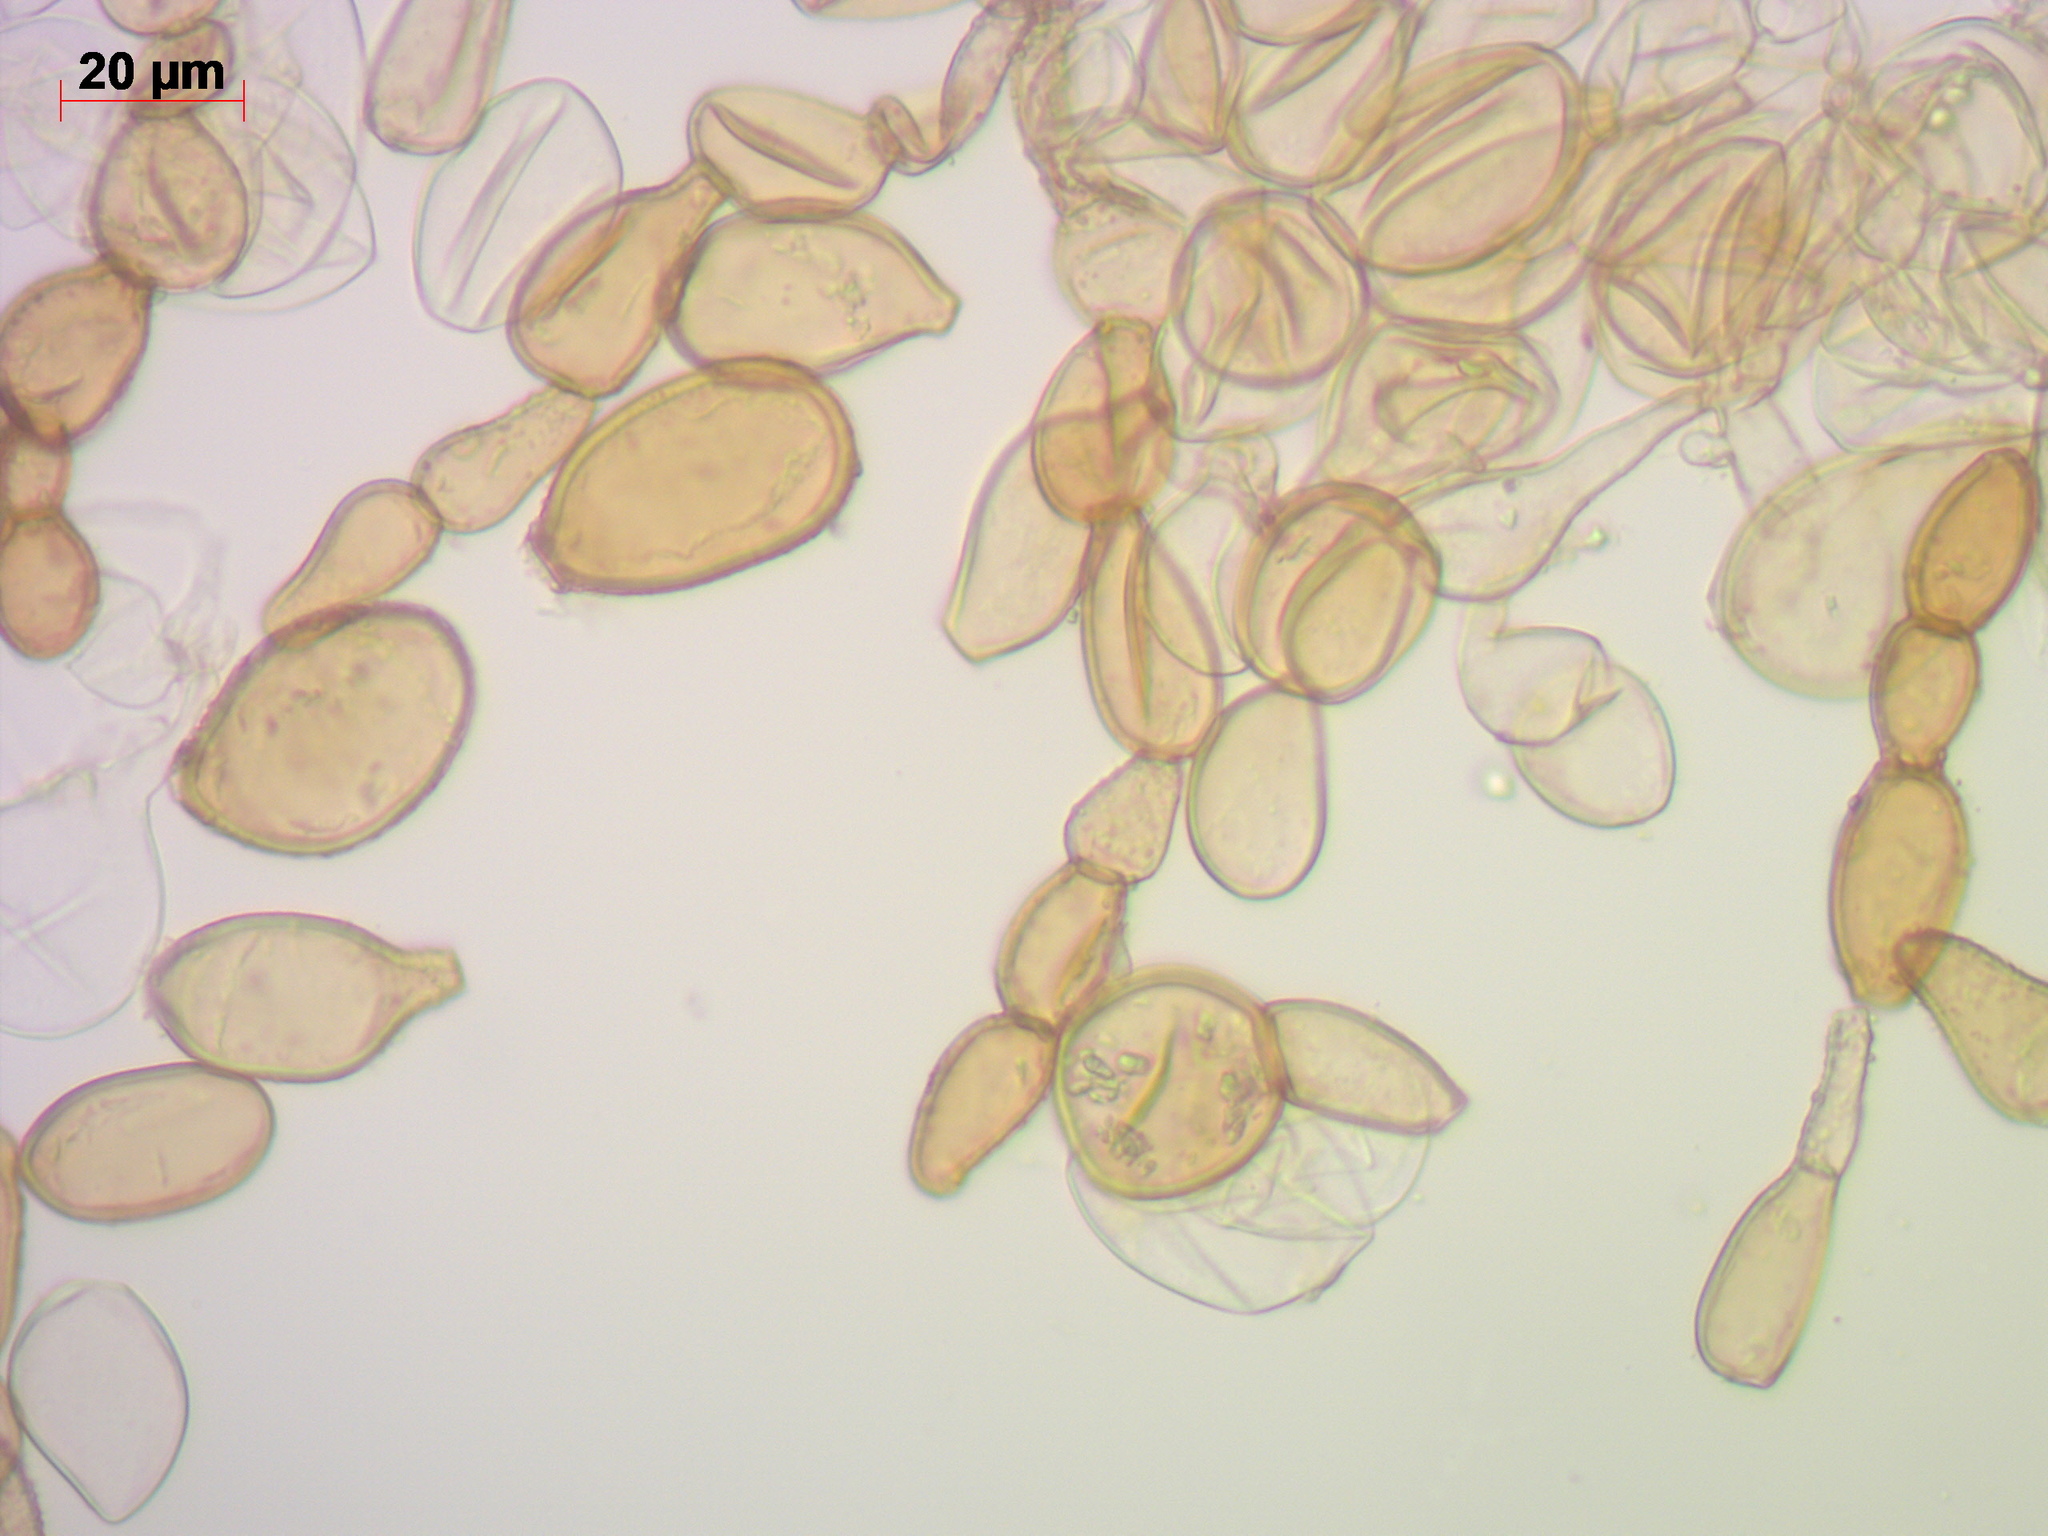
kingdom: Fungi
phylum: Basidiomycota
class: Agaricomycetes
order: Agaricales
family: Psathyrellaceae
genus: Coprinellus
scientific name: Coprinellus domesticus
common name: Firerug inkcap
